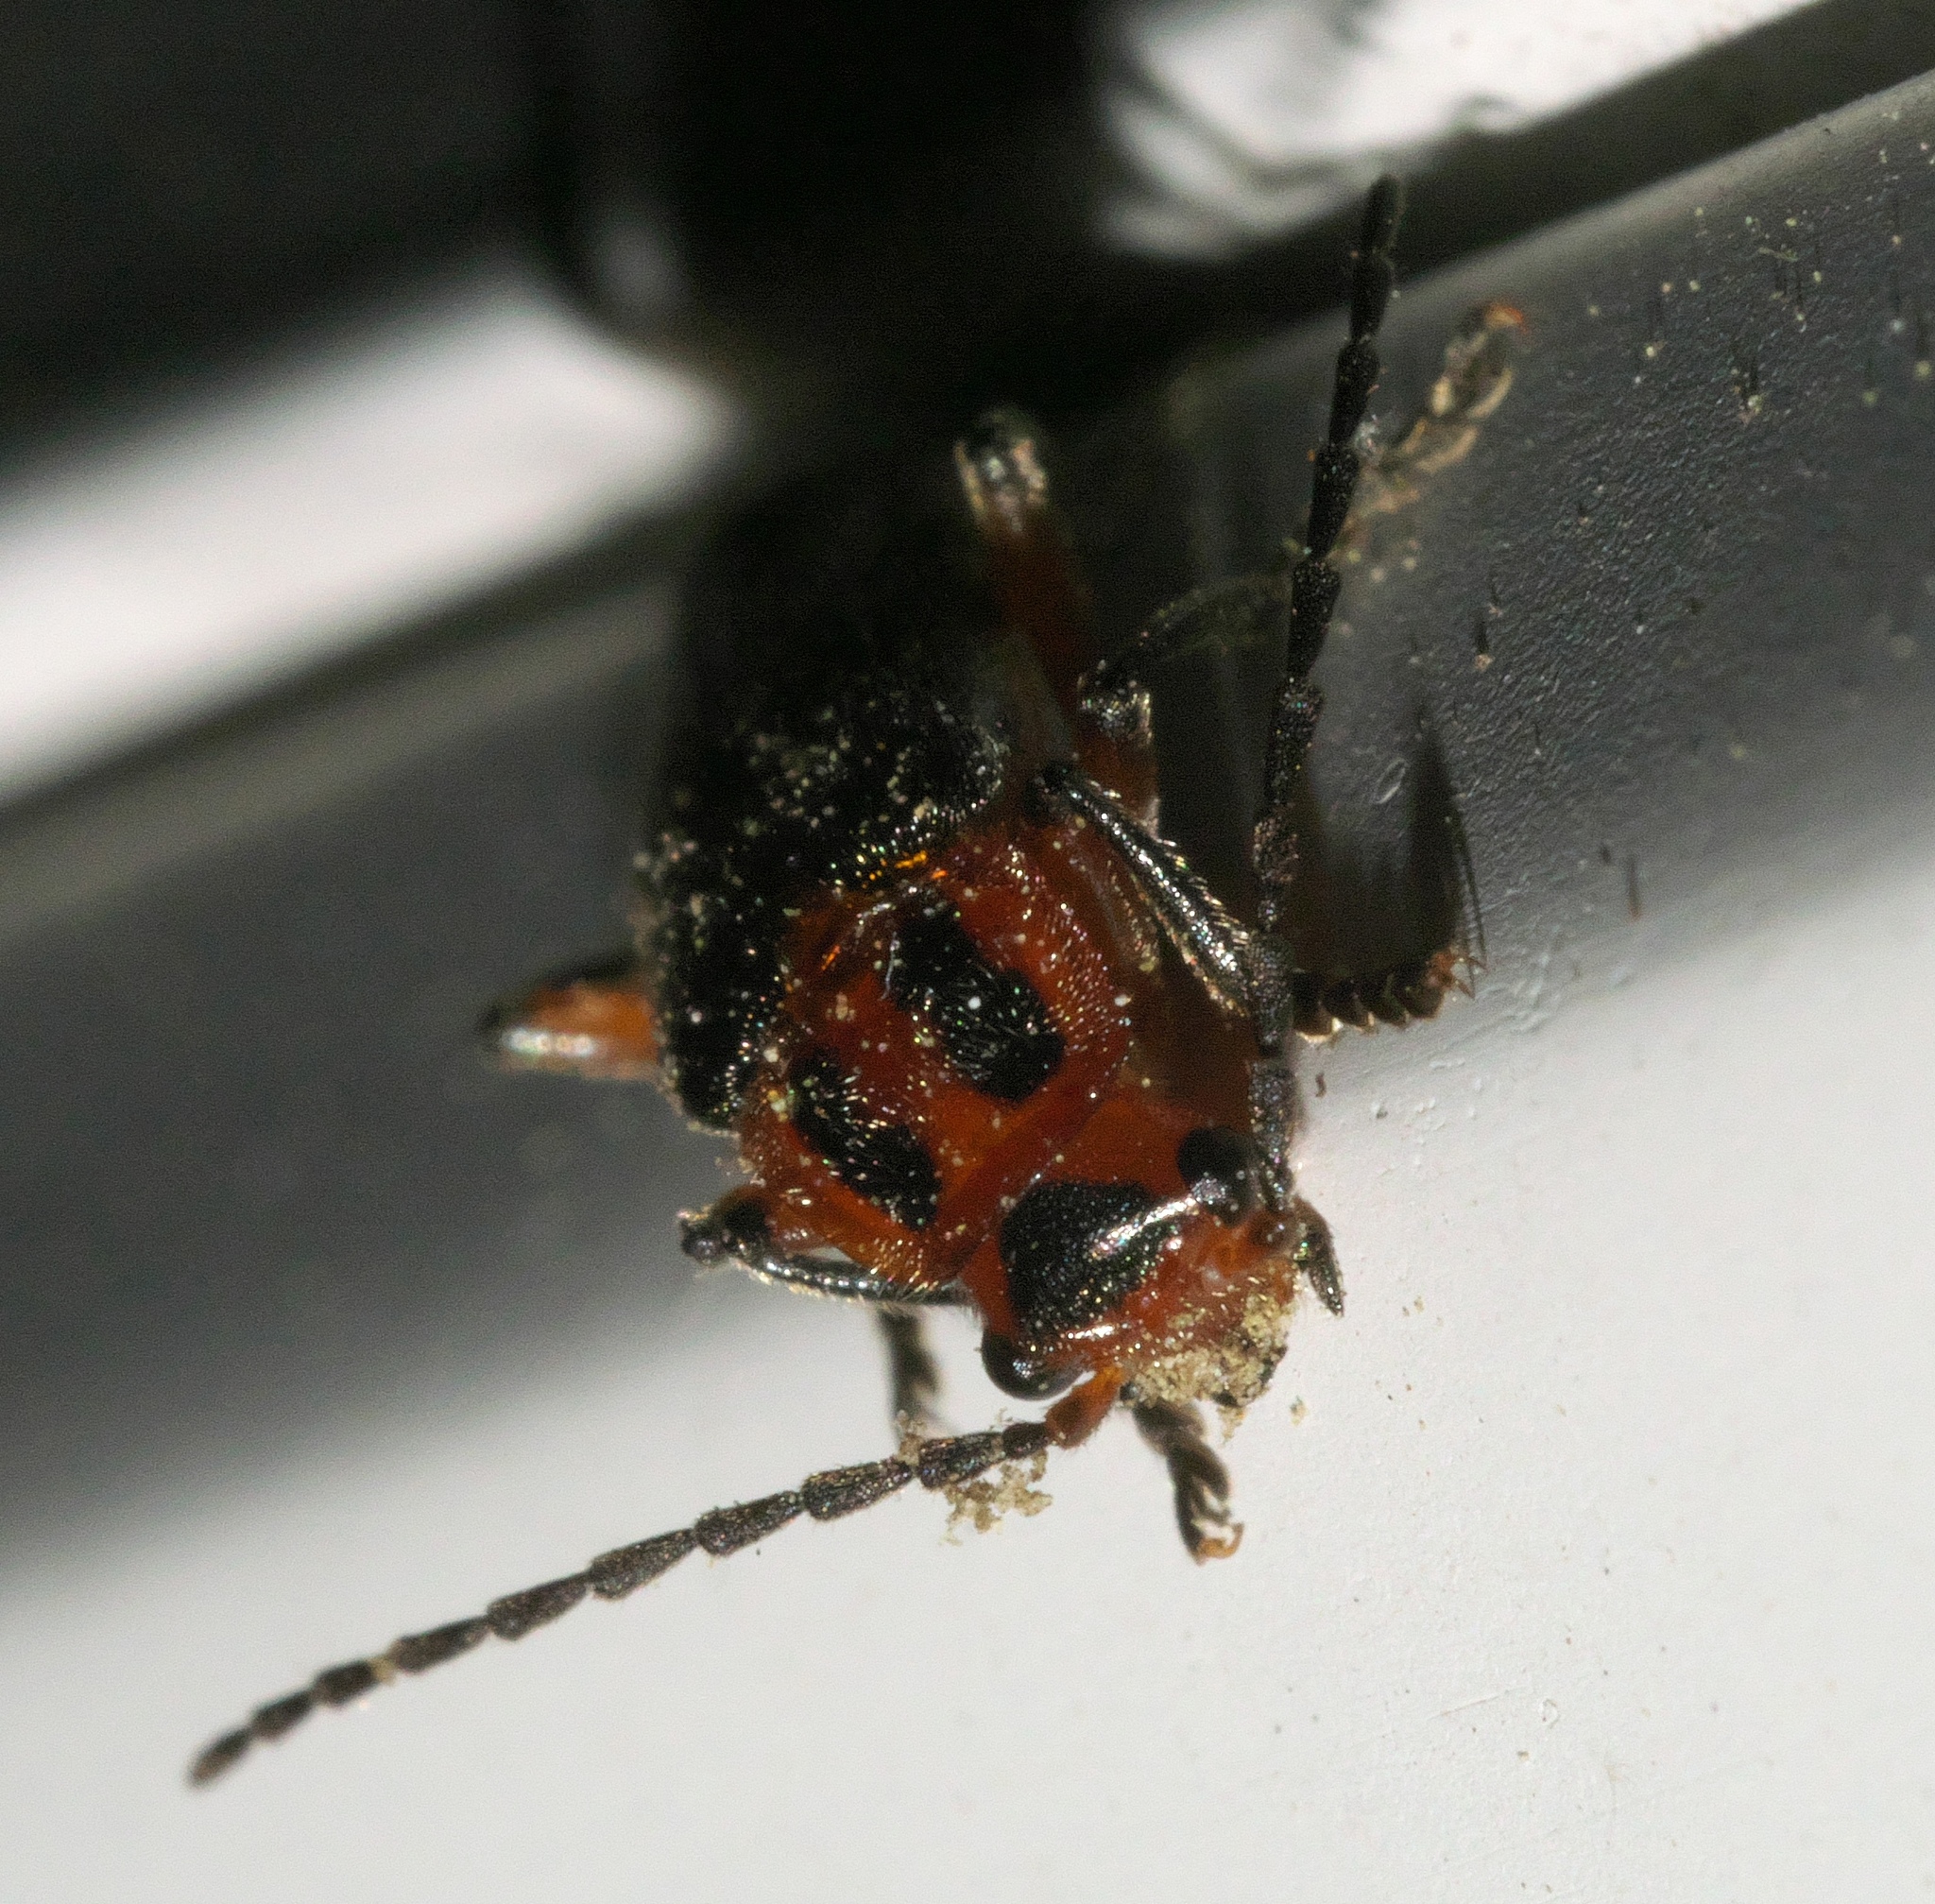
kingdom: Animalia
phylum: Arthropoda
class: Insecta
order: Coleoptera
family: Cantharidae
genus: Atalantycha
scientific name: Atalantycha bilineata
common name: Two-lined leatherwing
